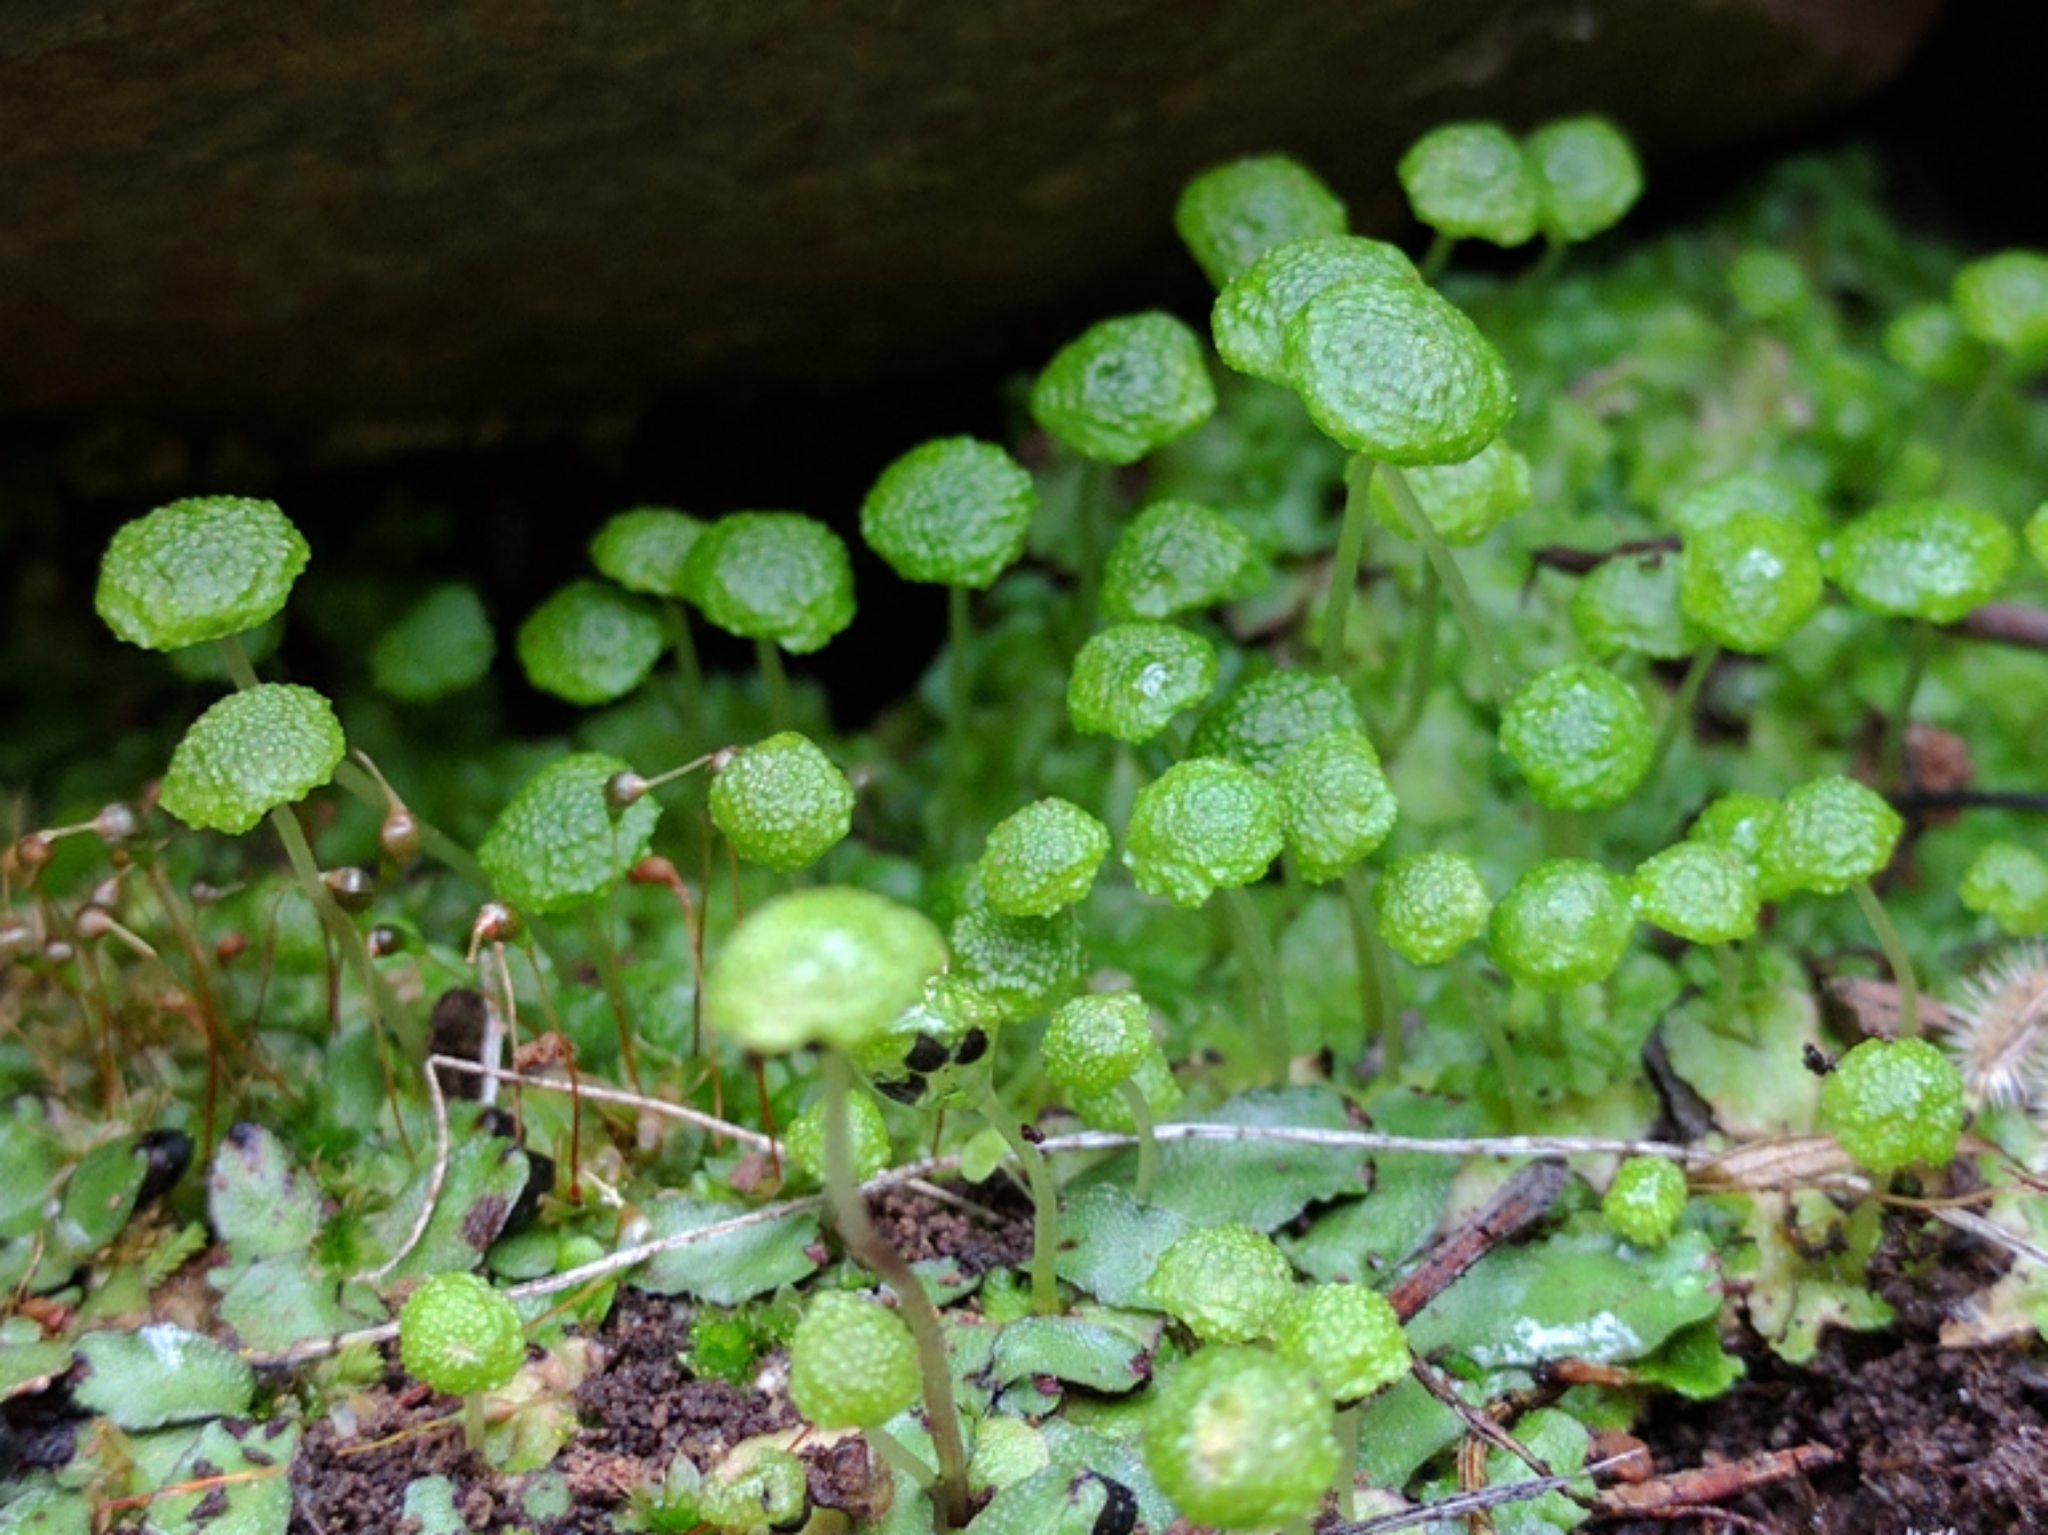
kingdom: Plantae
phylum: Marchantiophyta
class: Marchantiopsida
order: Marchantiales
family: Aytoniaceae
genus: Cryptomitrium
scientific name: Cryptomitrium tenerum
